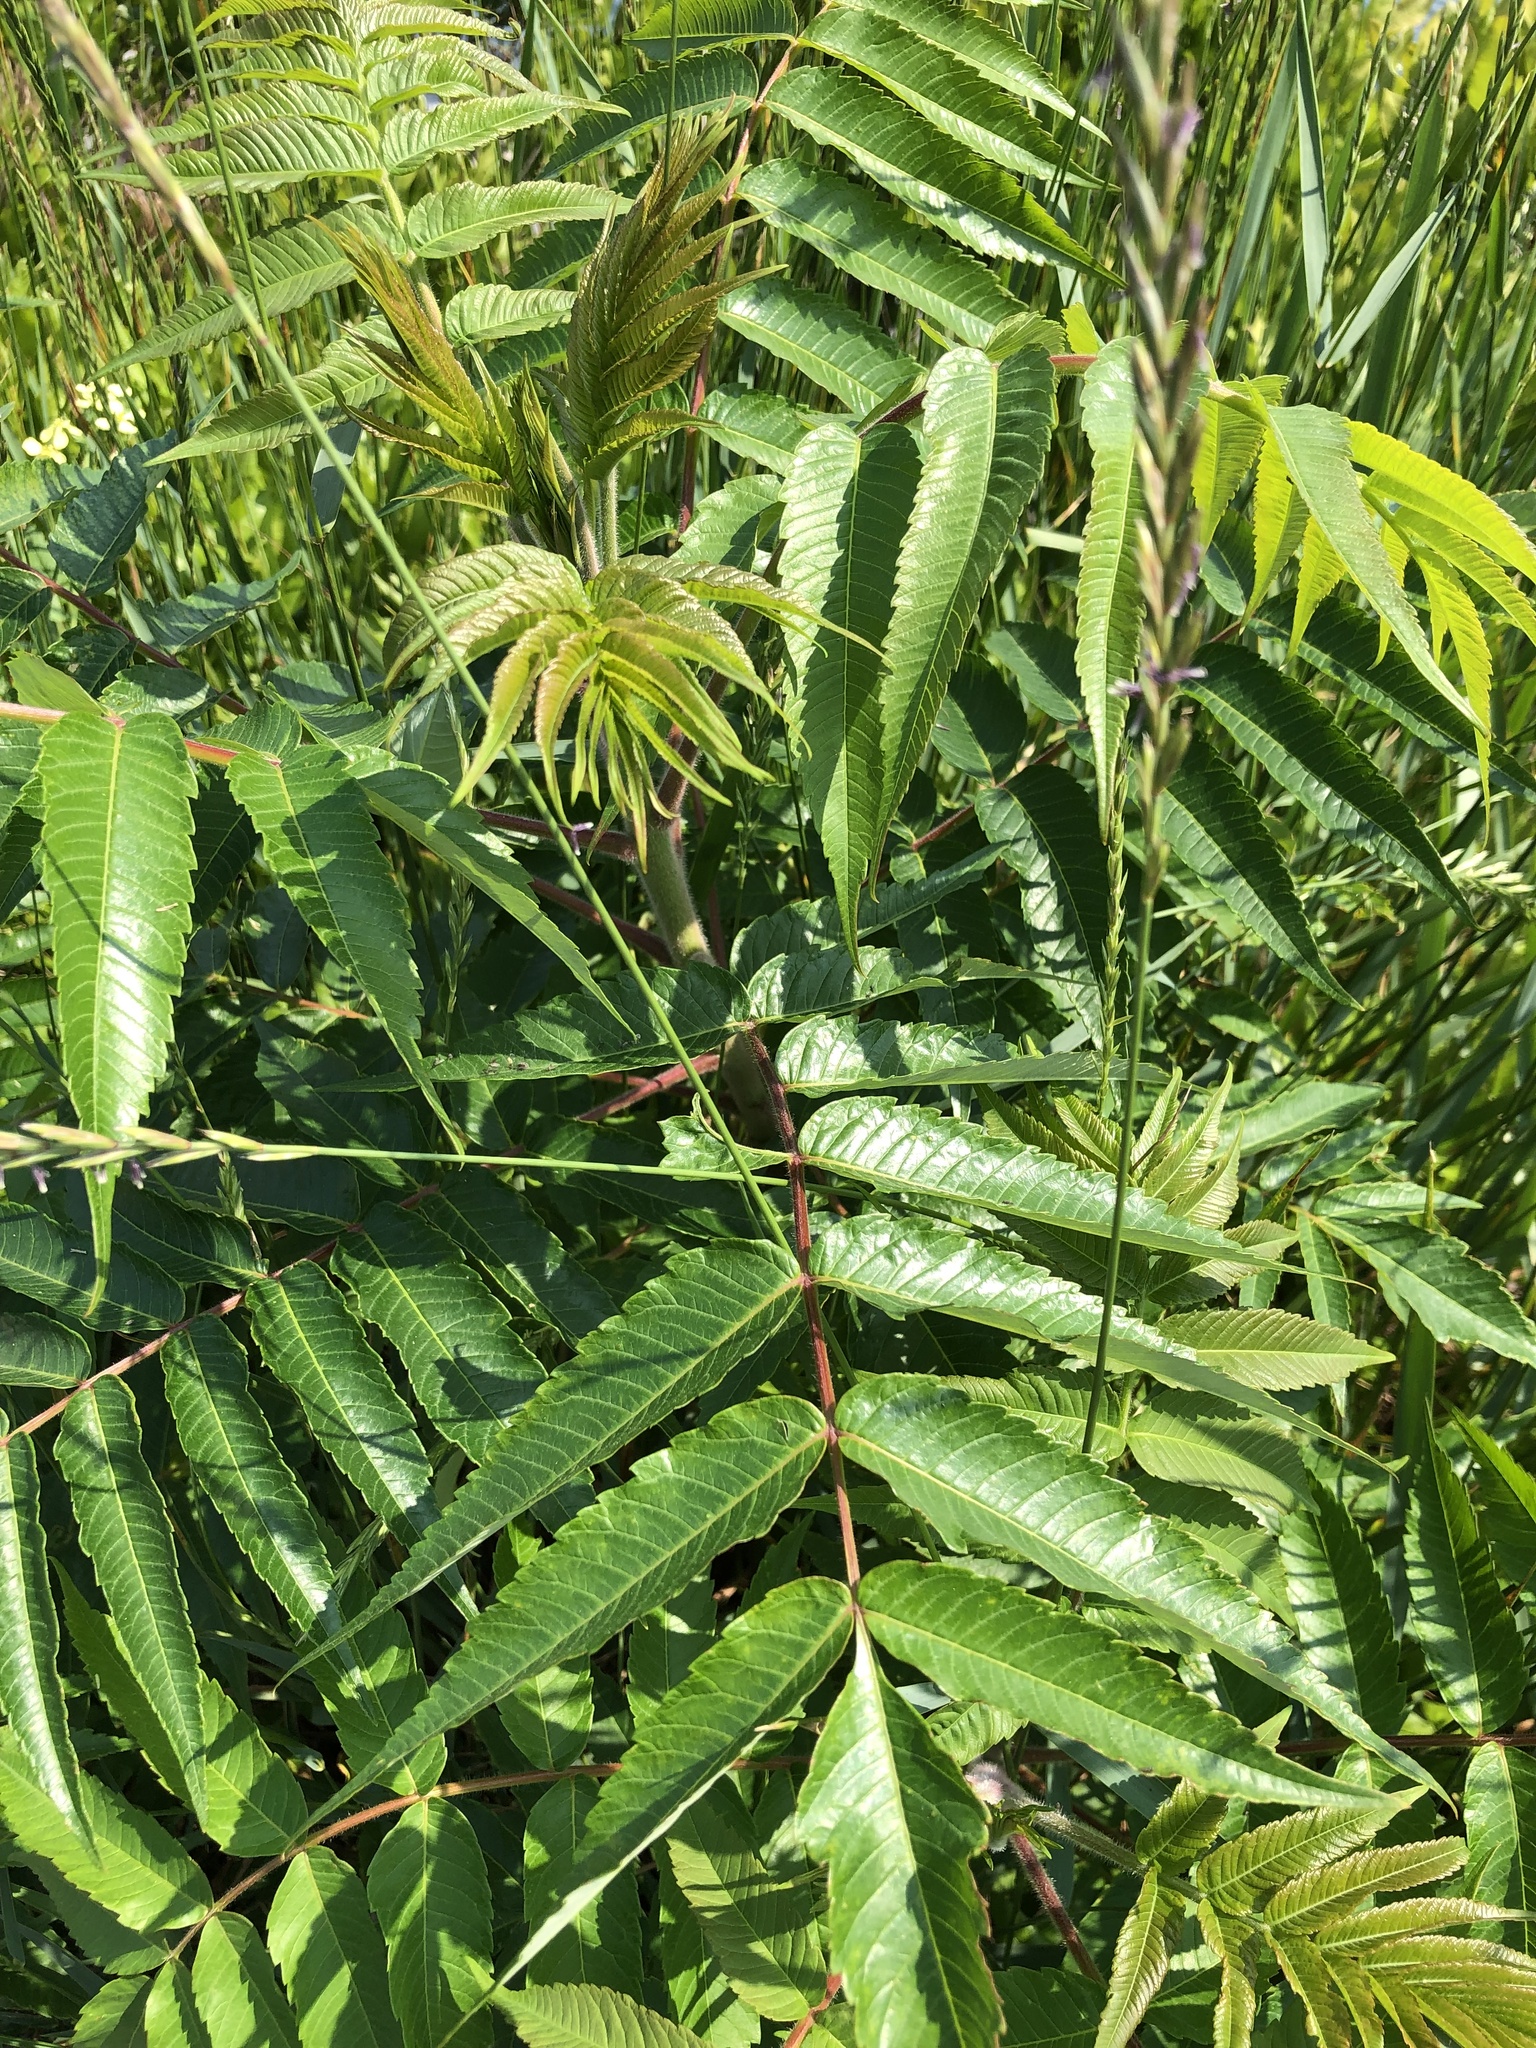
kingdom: Plantae
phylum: Tracheophyta
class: Magnoliopsida
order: Sapindales
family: Anacardiaceae
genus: Rhus
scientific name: Rhus typhina
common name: Staghorn sumac
